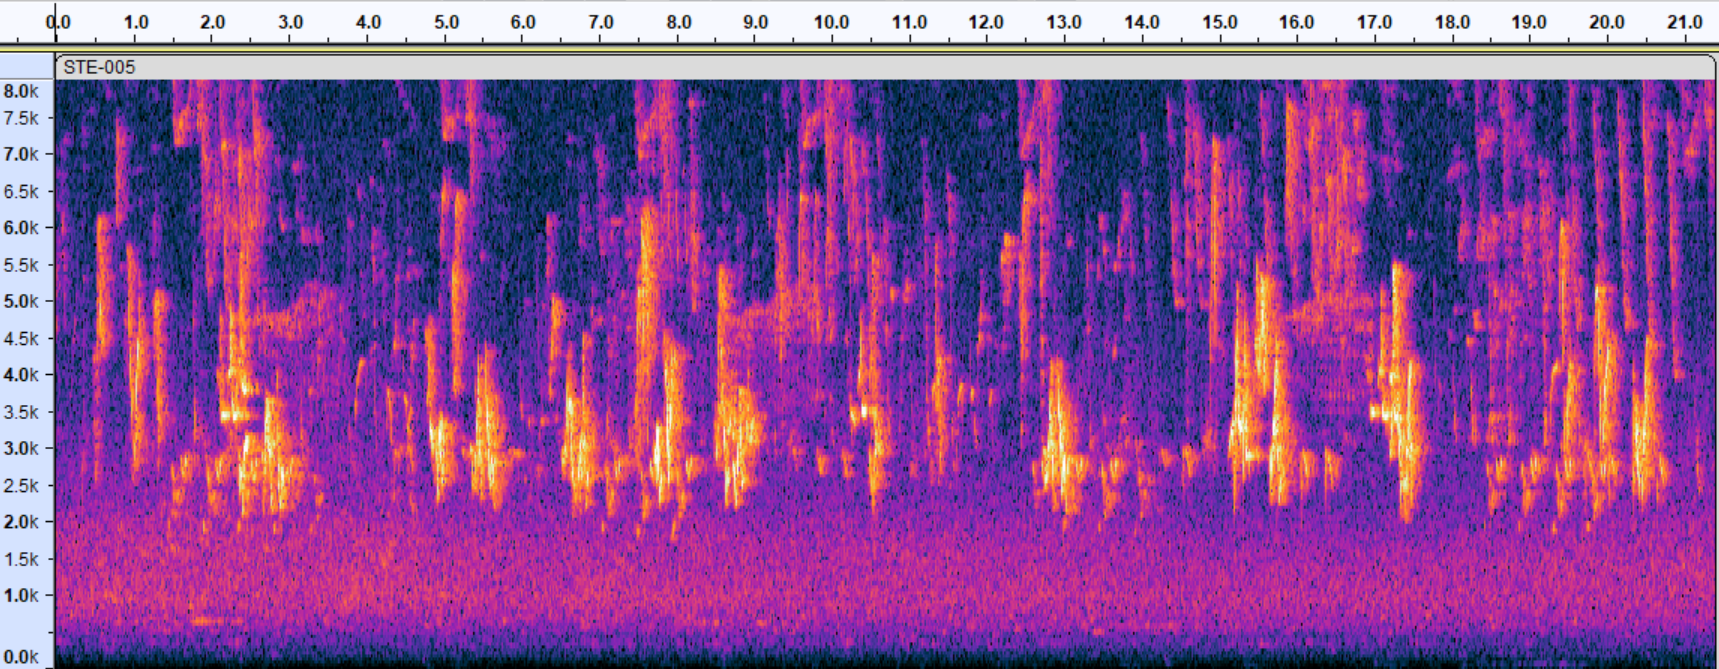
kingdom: Animalia
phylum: Chordata
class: Aves
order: Passeriformes
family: Vireonidae
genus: Vireo
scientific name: Vireo olivaceus
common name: Red-eyed vireo
